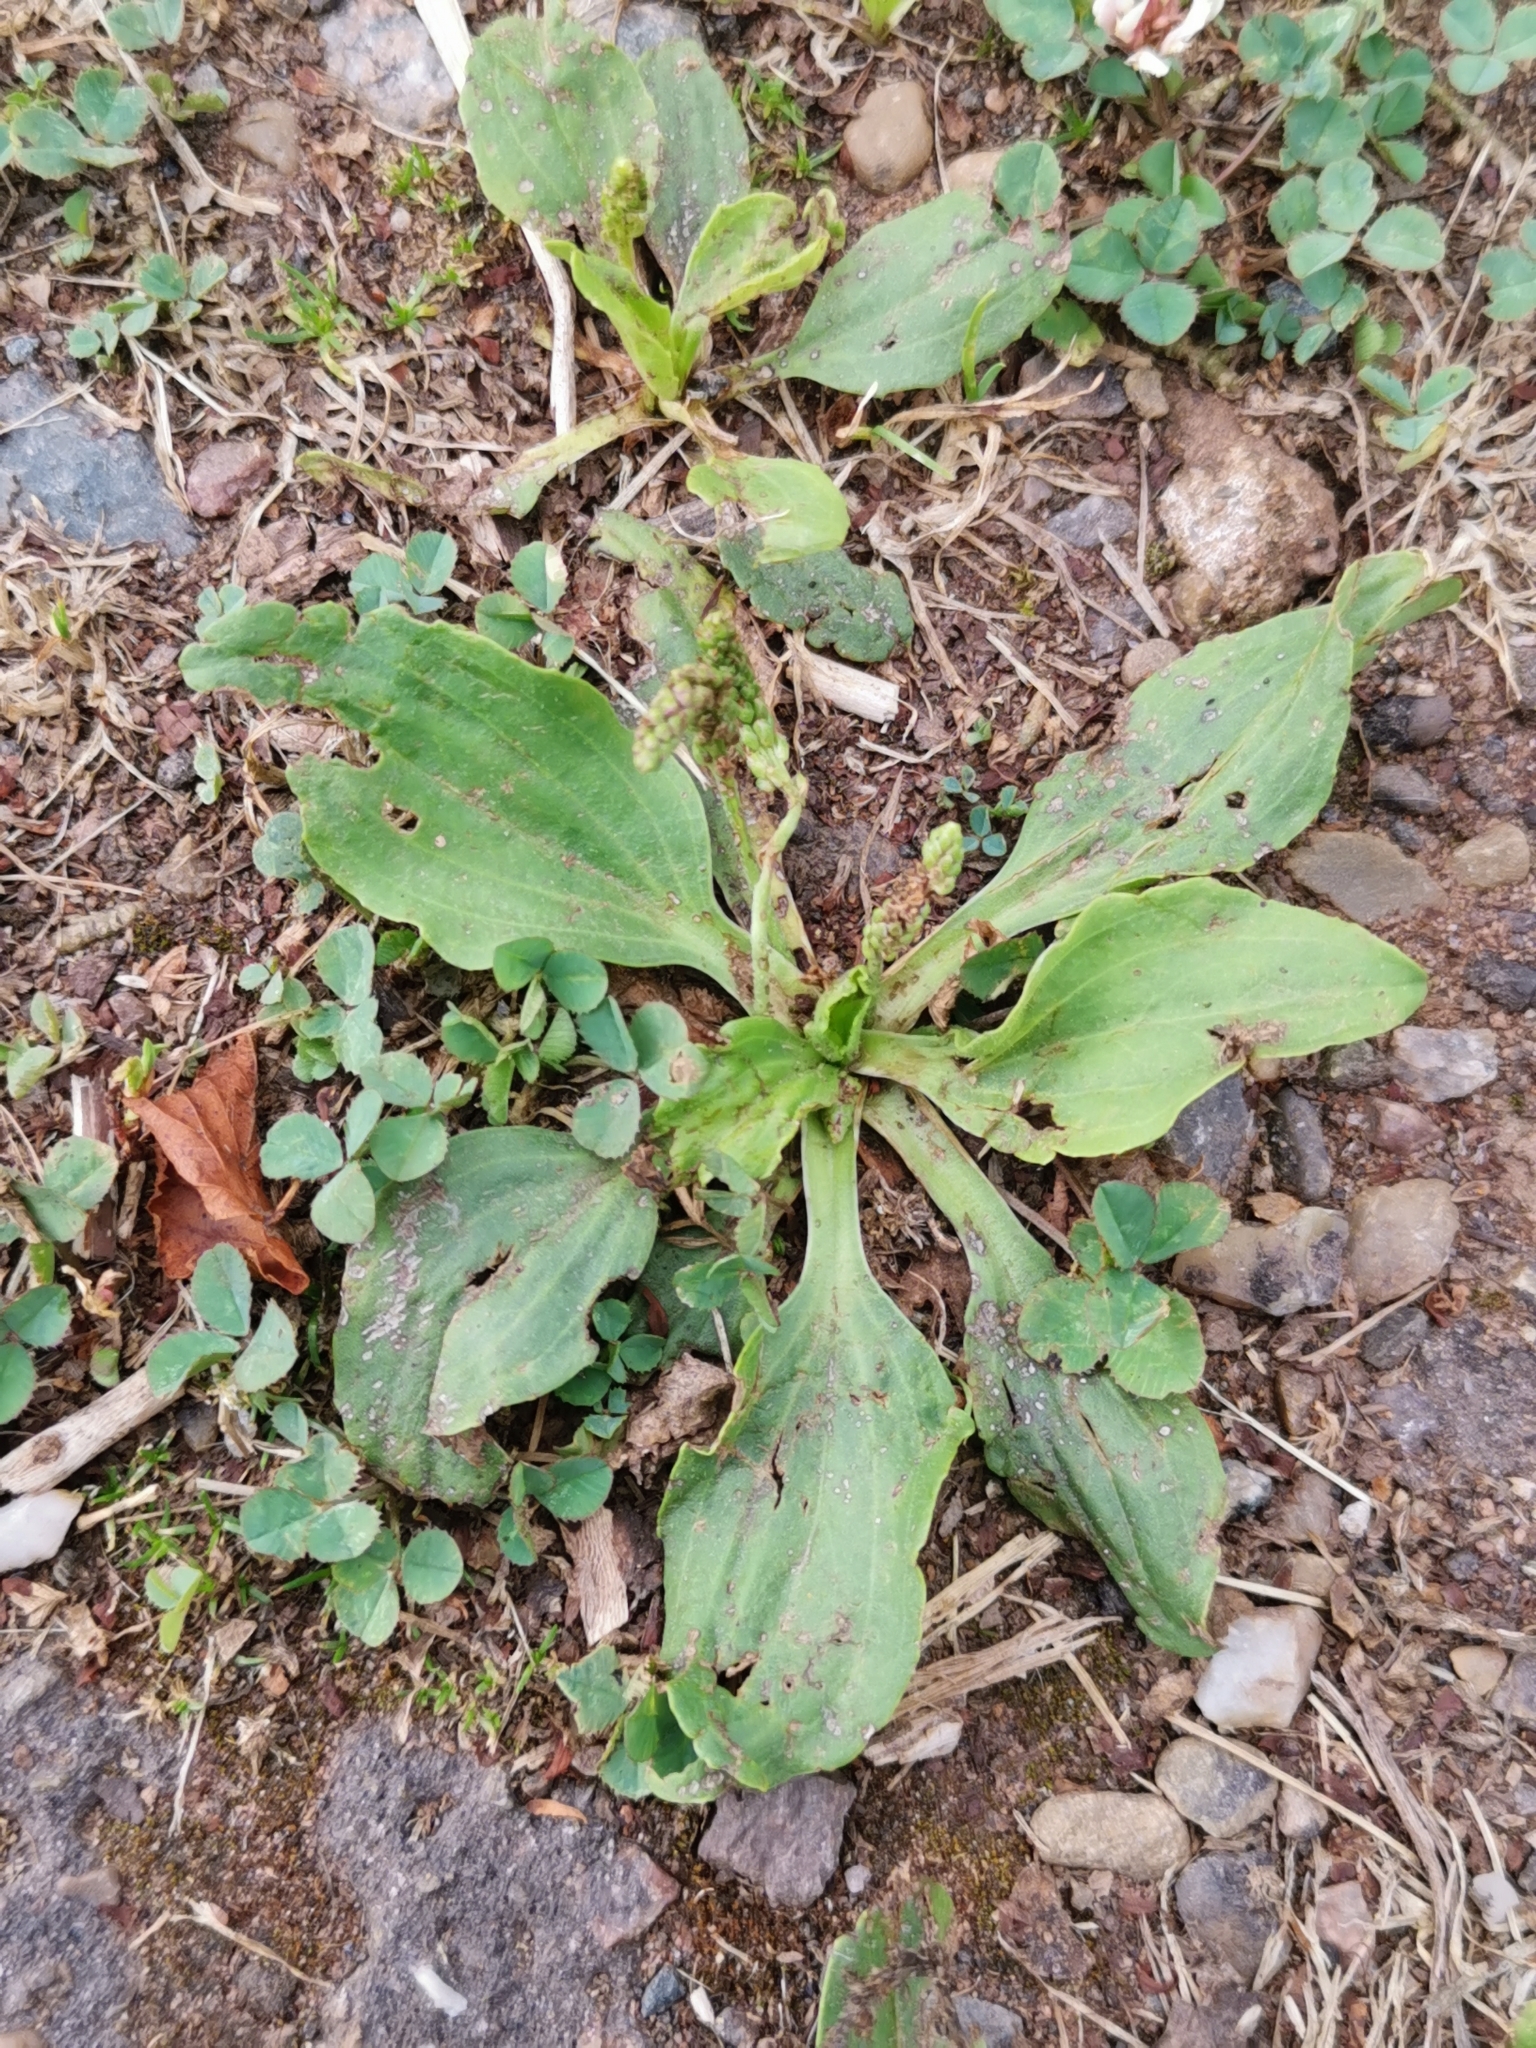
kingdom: Plantae
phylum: Tracheophyta
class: Magnoliopsida
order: Lamiales
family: Plantaginaceae
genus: Plantago
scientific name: Plantago major
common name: Common plantain
